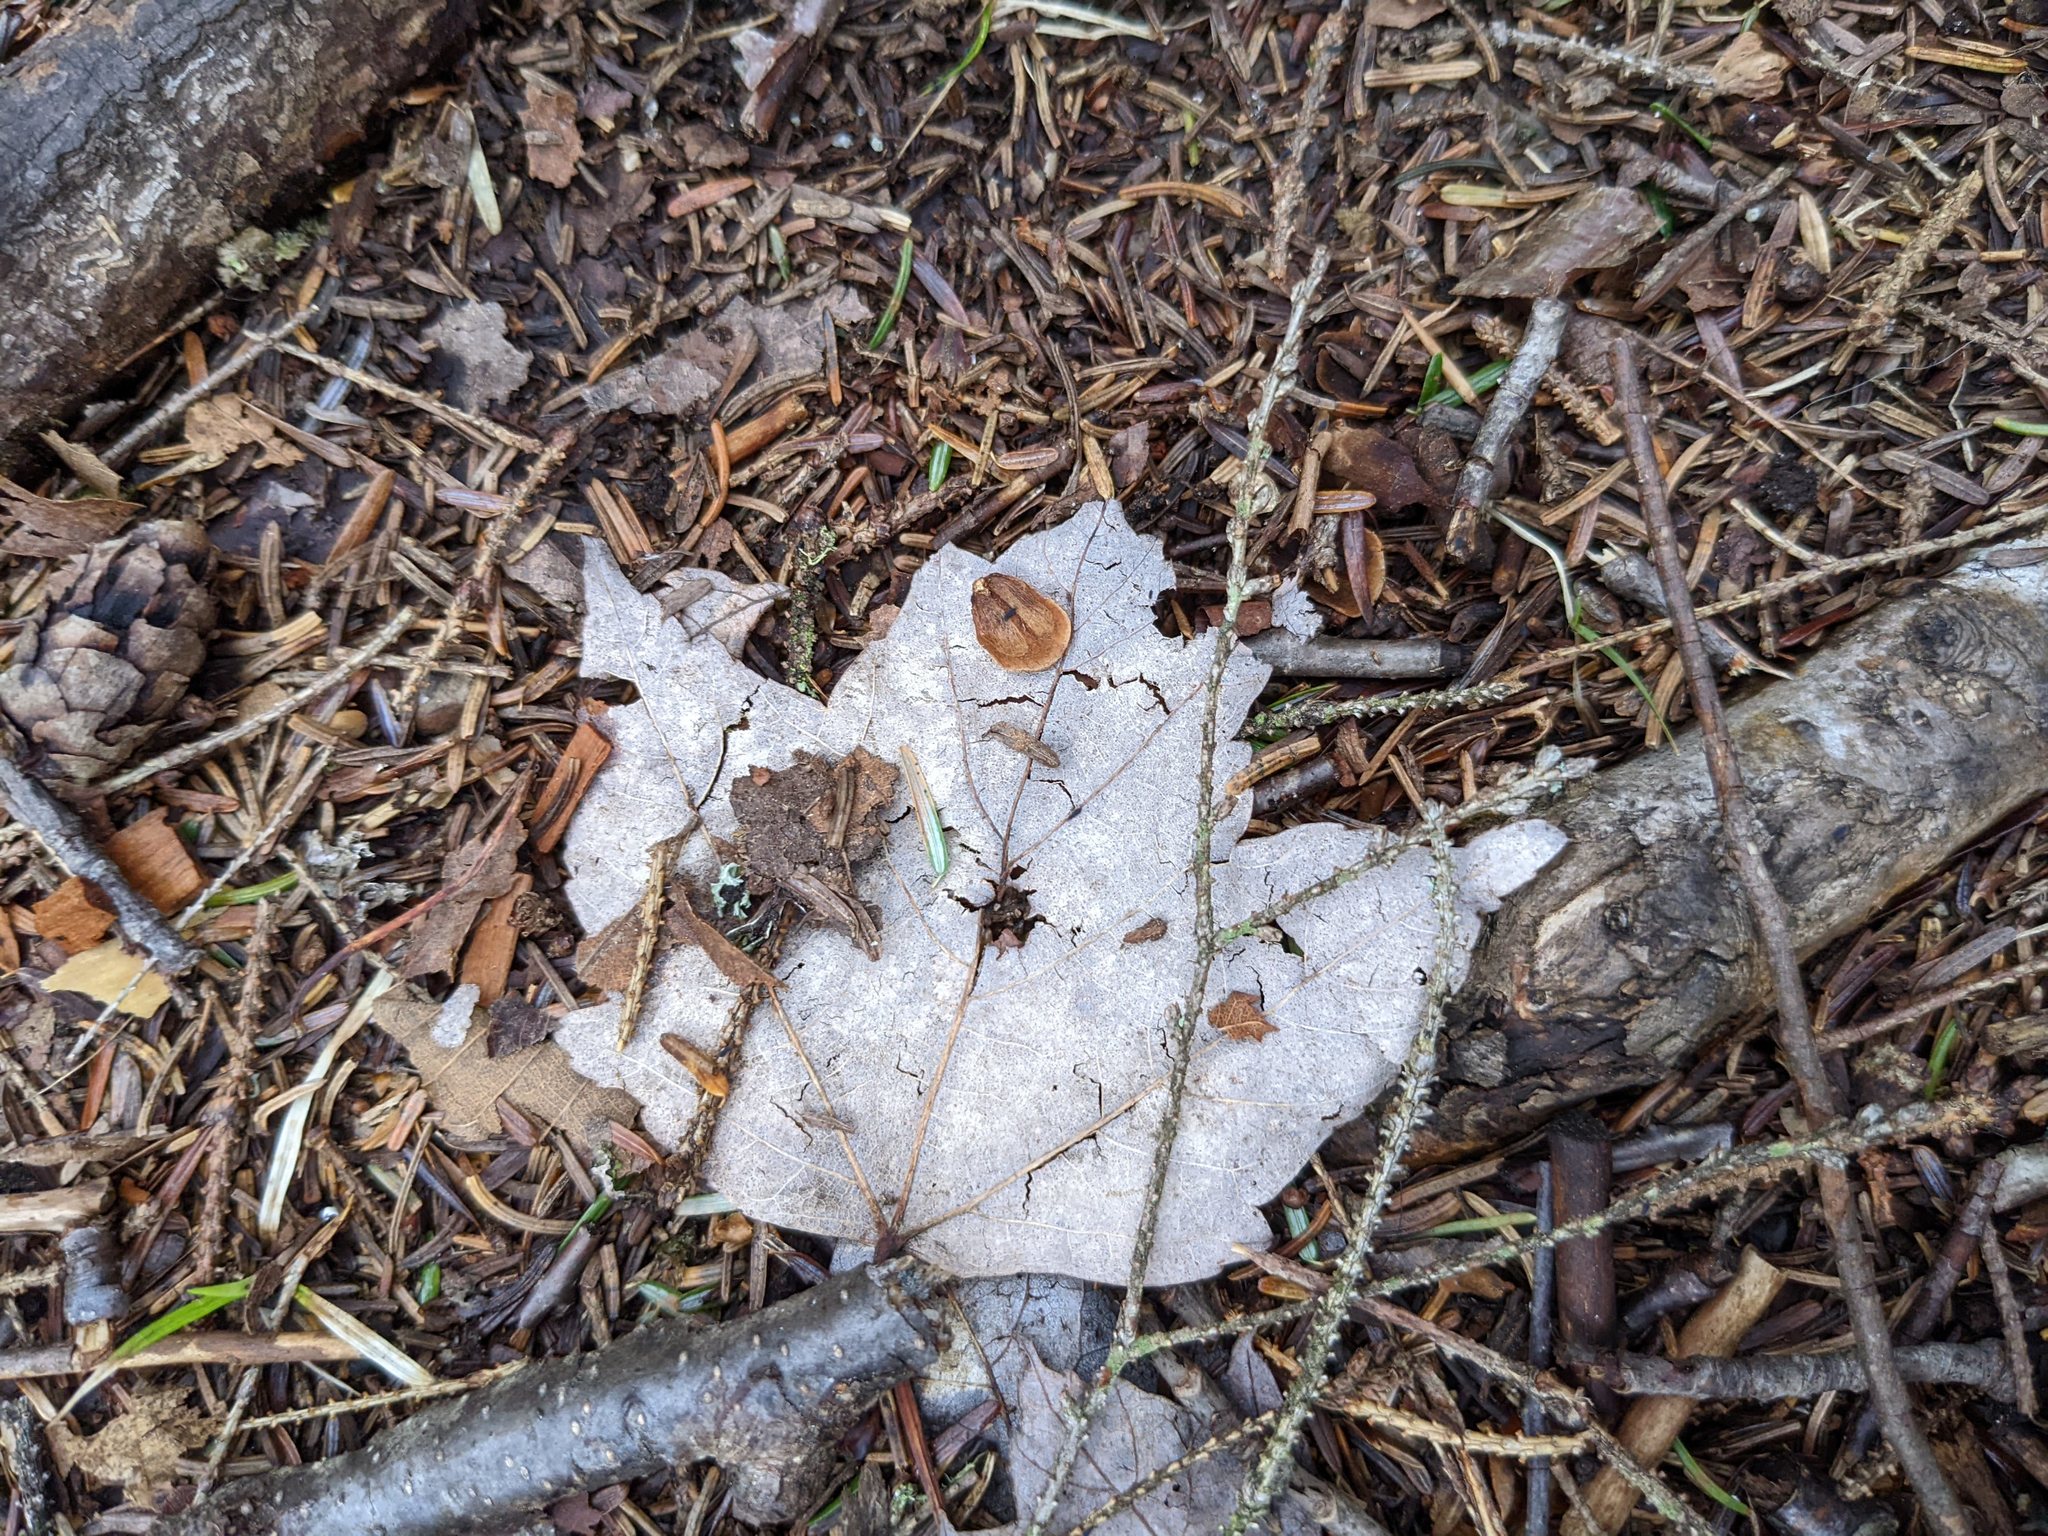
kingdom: Plantae
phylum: Tracheophyta
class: Magnoliopsida
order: Sapindales
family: Sapindaceae
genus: Acer
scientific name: Acer rubrum
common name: Red maple
